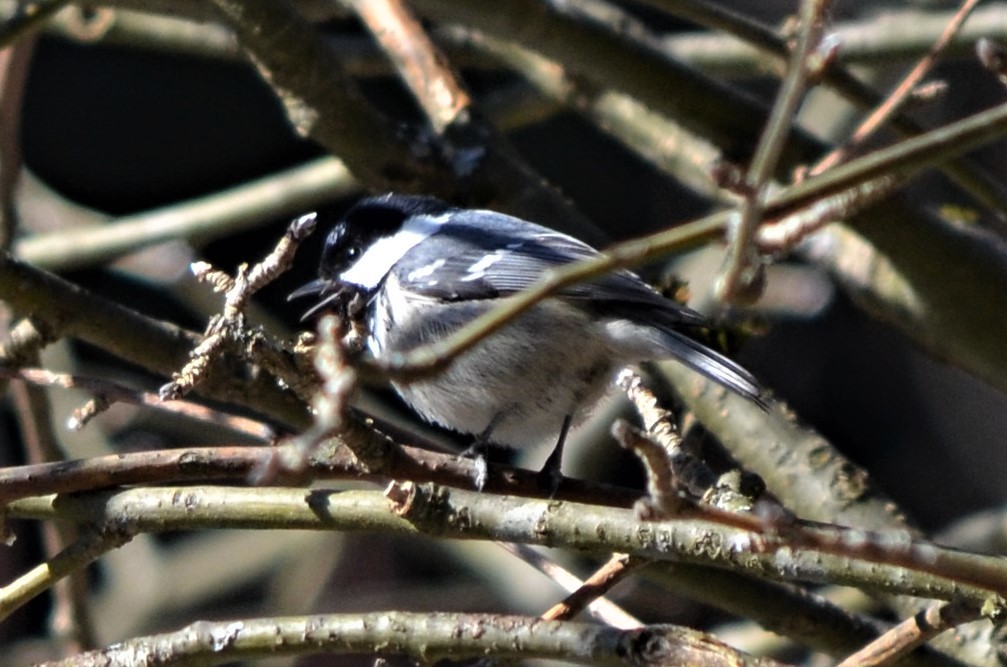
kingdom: Animalia
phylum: Chordata
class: Aves
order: Passeriformes
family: Paridae
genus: Periparus
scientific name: Periparus ater
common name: Coal tit
